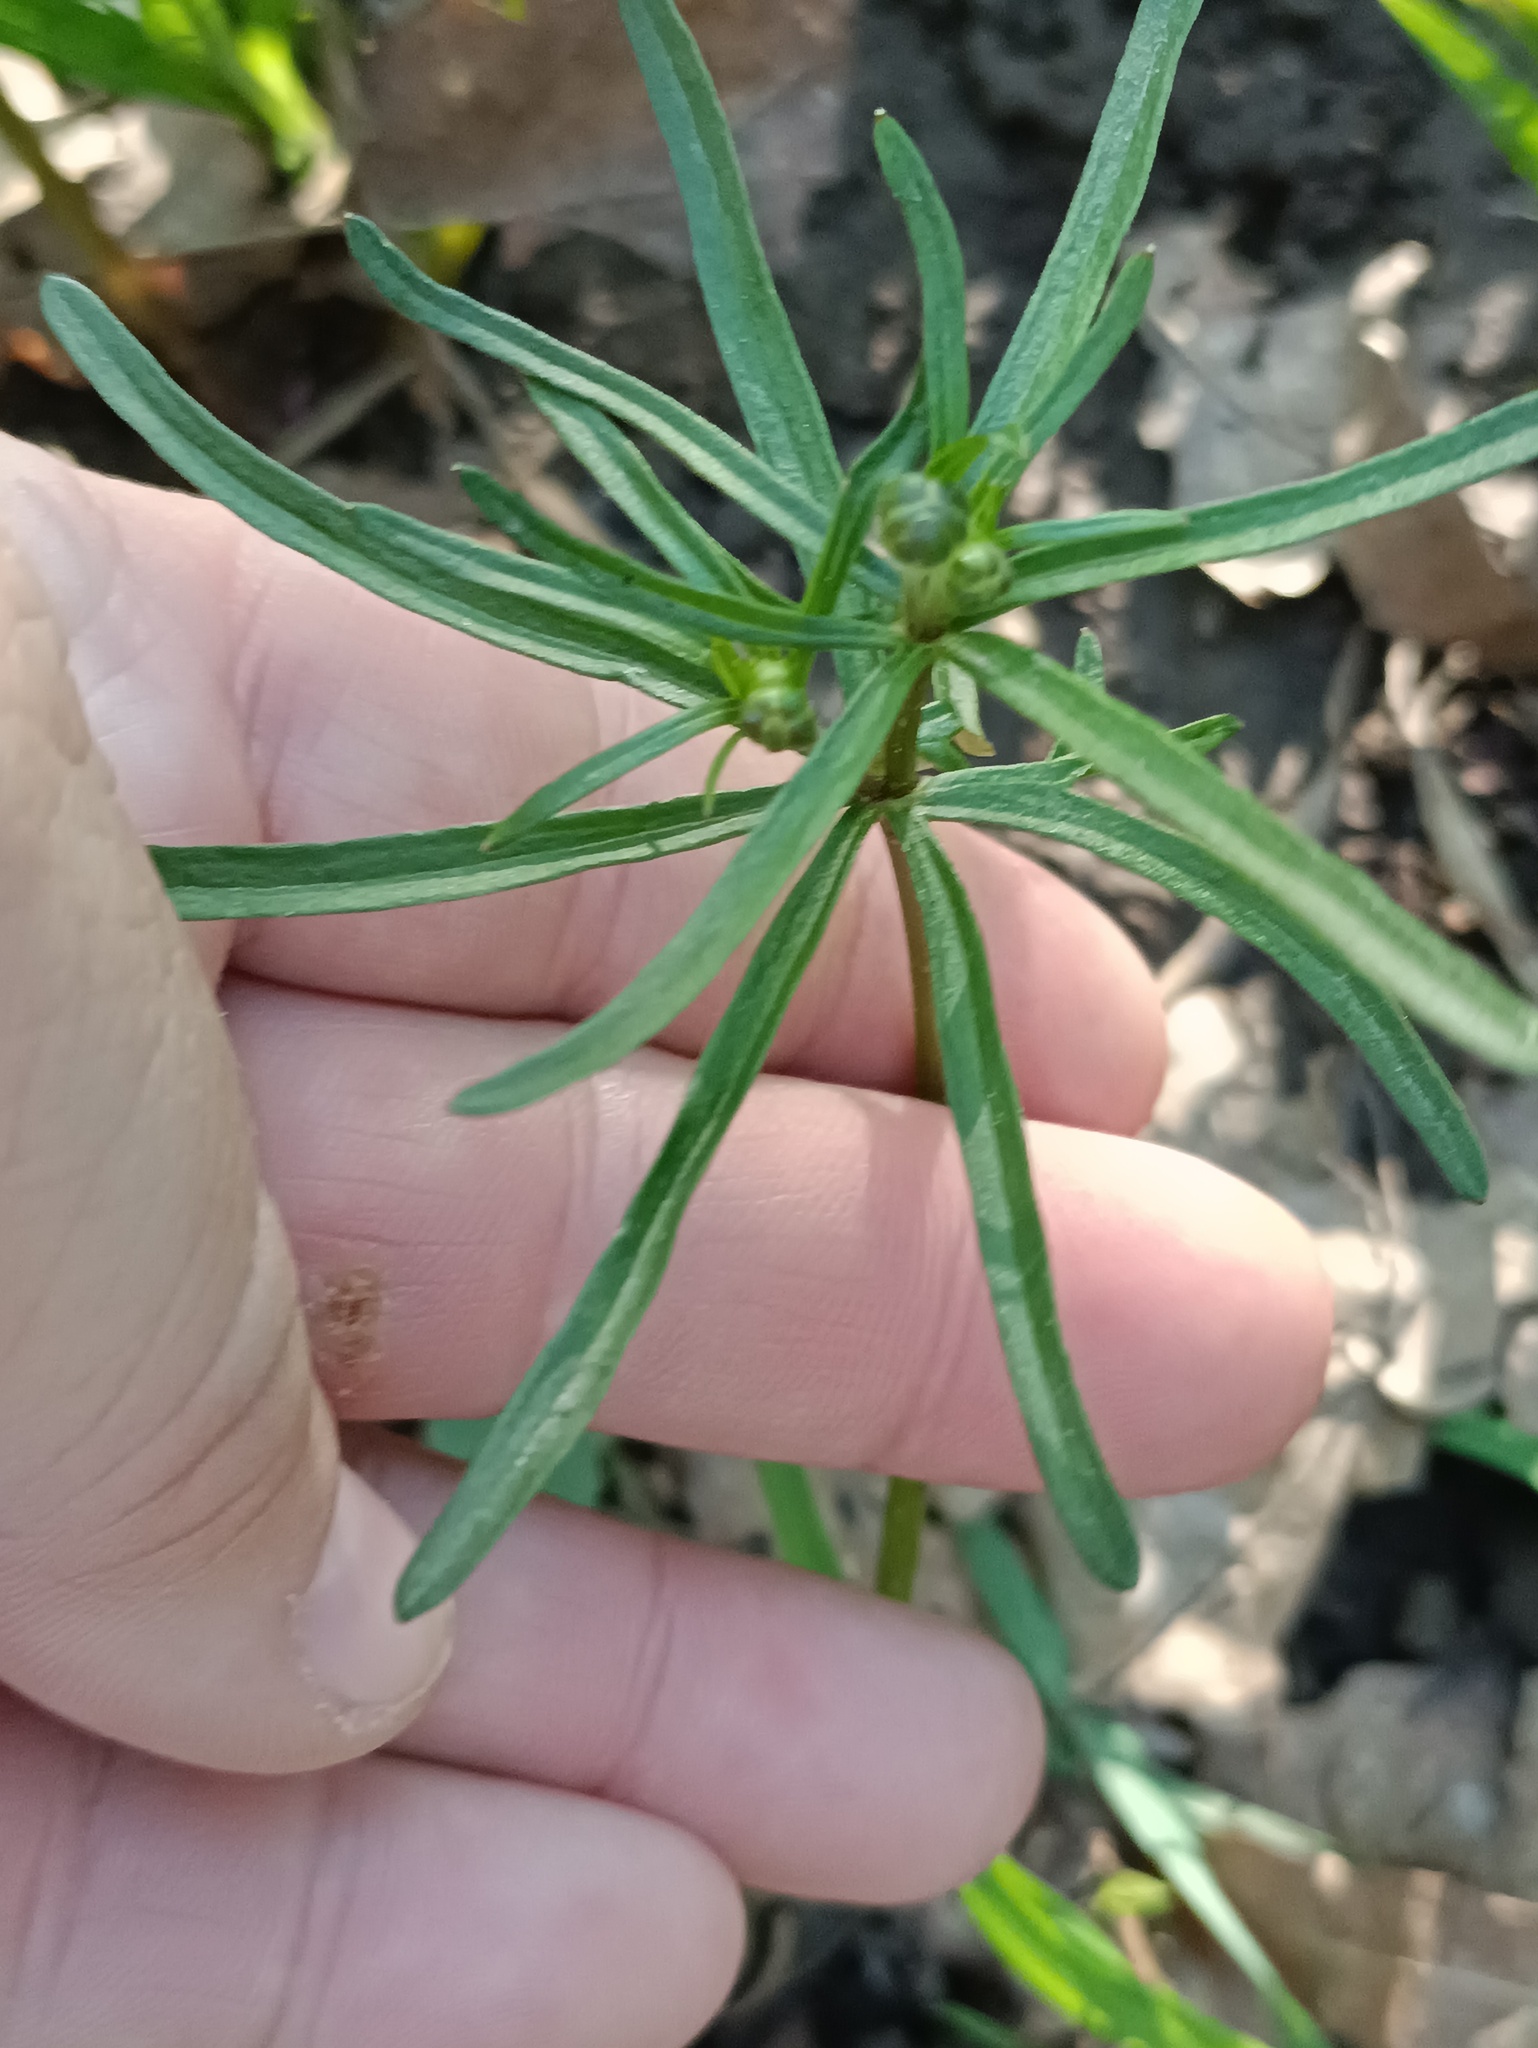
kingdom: Plantae
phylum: Tracheophyta
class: Magnoliopsida
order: Ranunculales
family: Ranunculaceae
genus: Ranunculus
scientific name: Ranunculus auricomus
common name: Goldilocks buttercup
